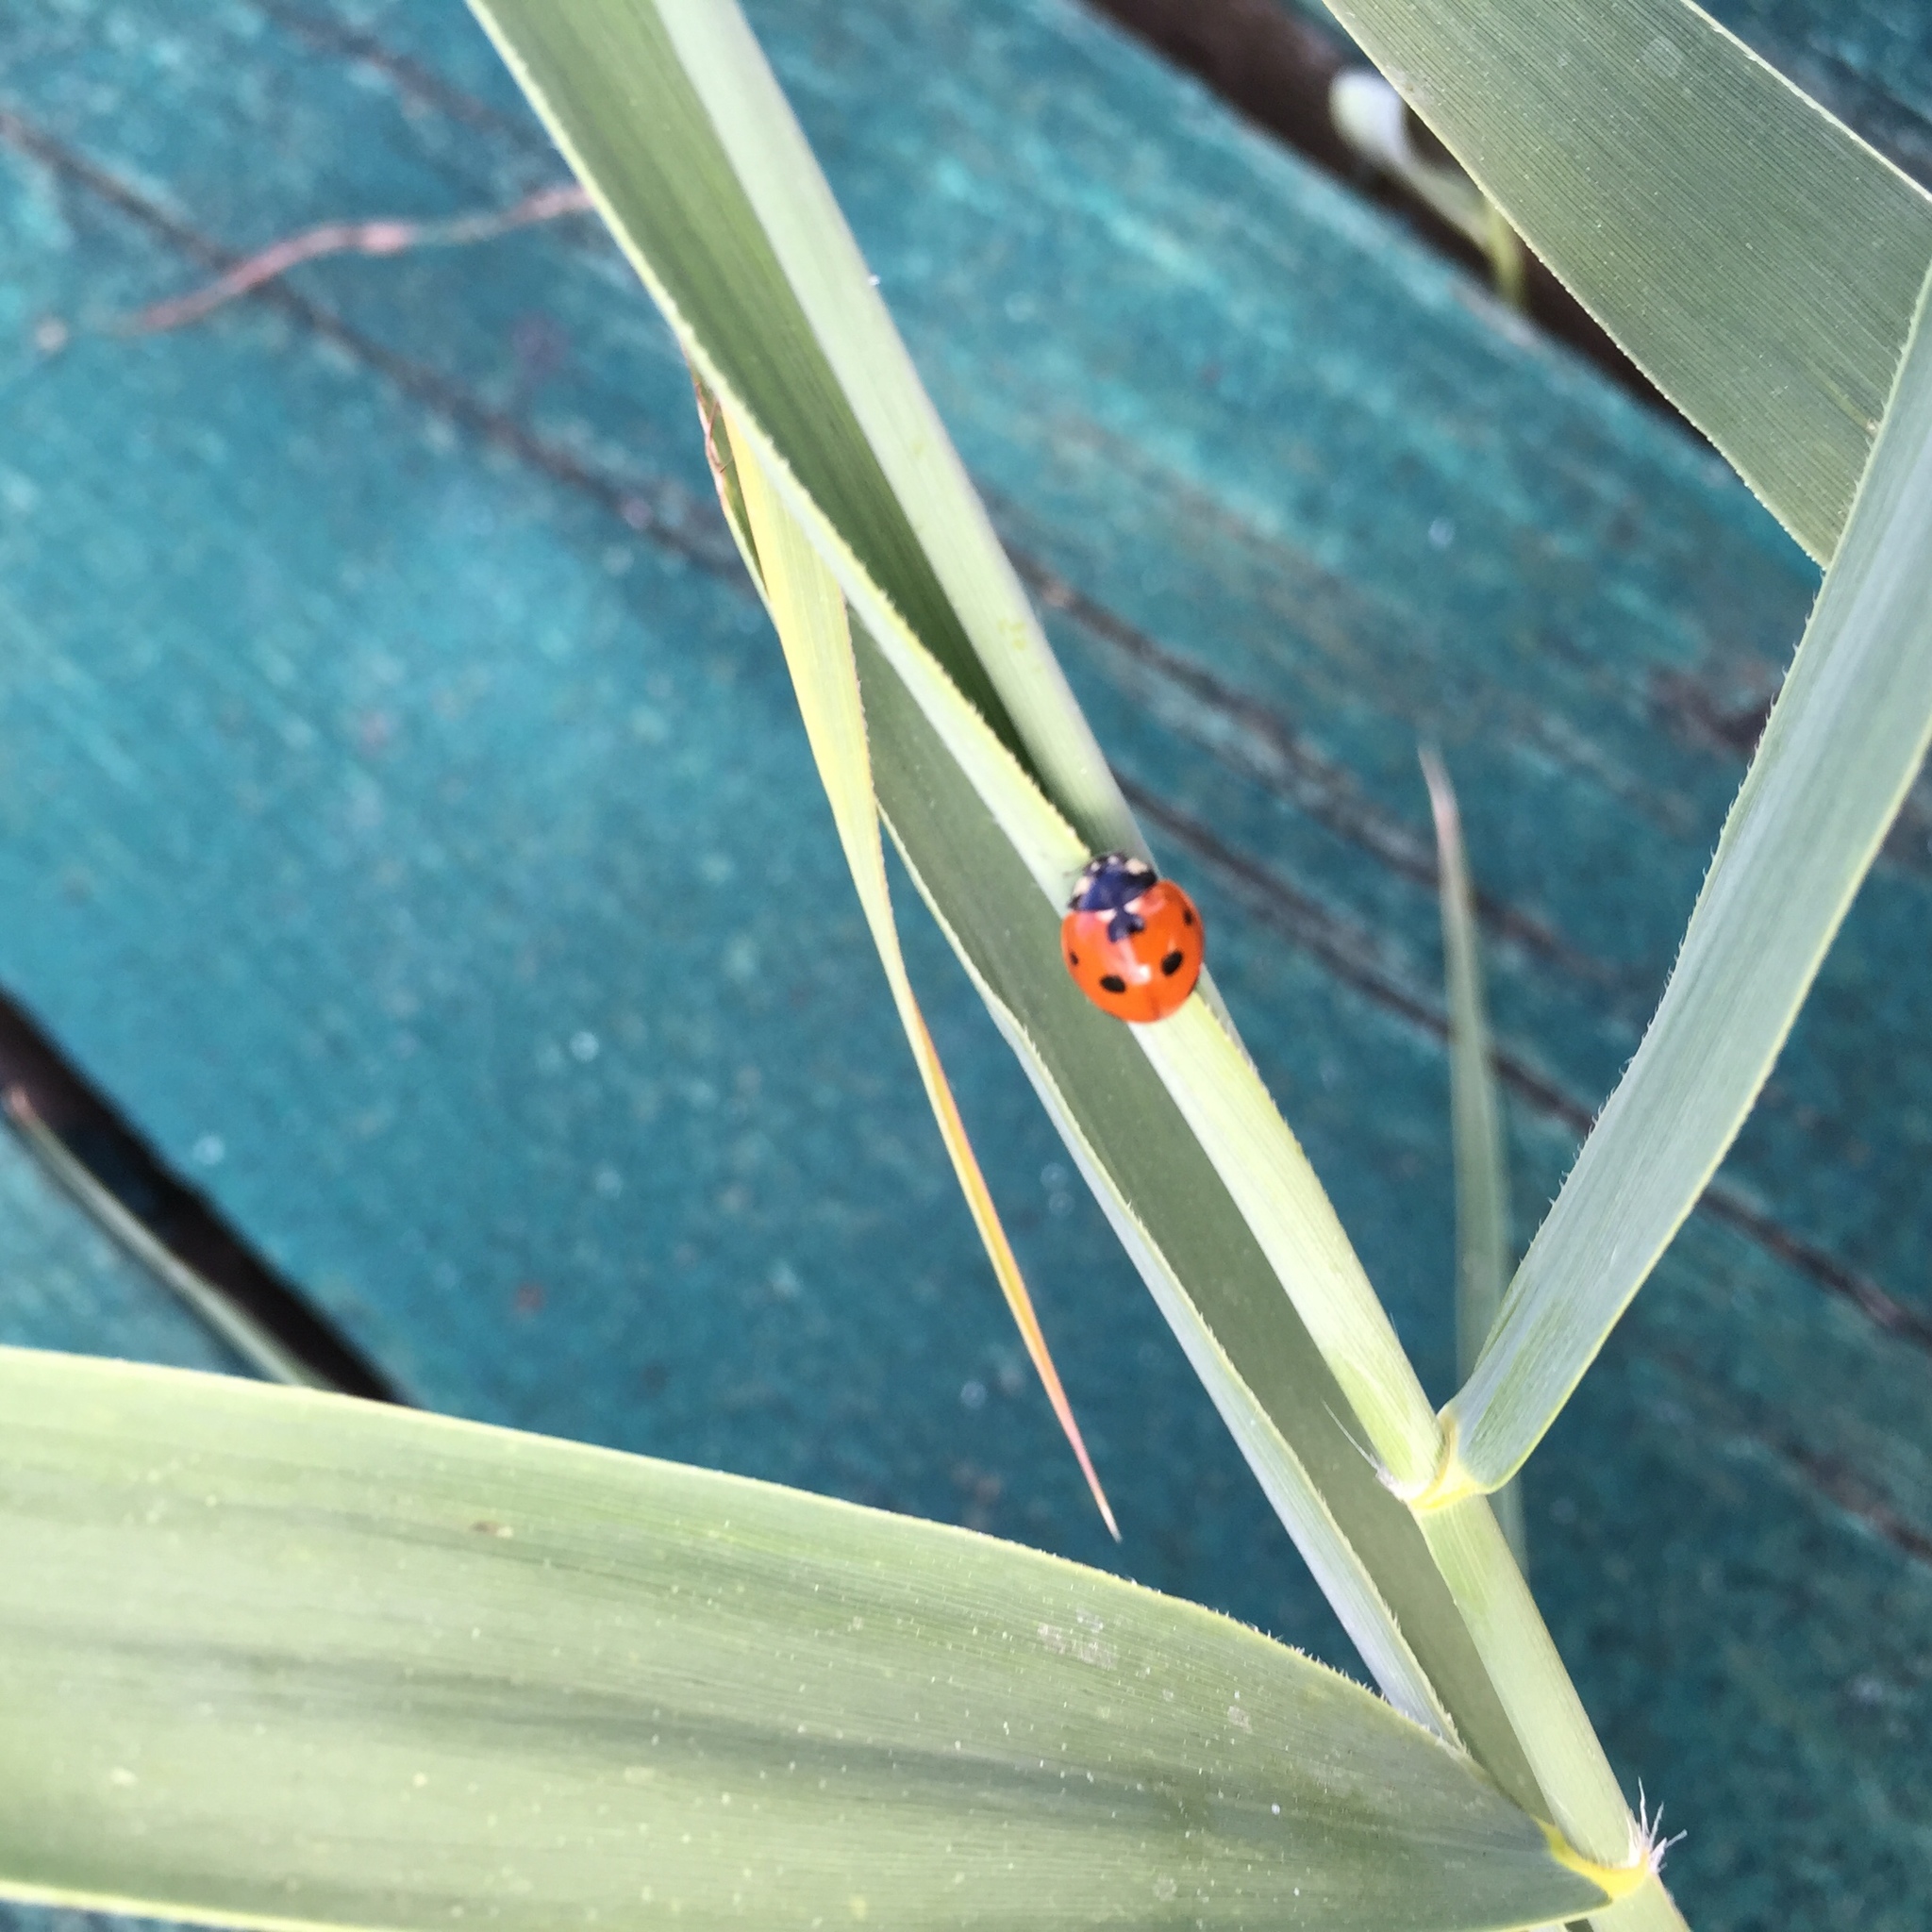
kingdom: Animalia
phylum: Arthropoda
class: Insecta
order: Coleoptera
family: Coccinellidae
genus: Coccinella
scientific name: Coccinella septempunctata
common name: Sevenspotted lady beetle
